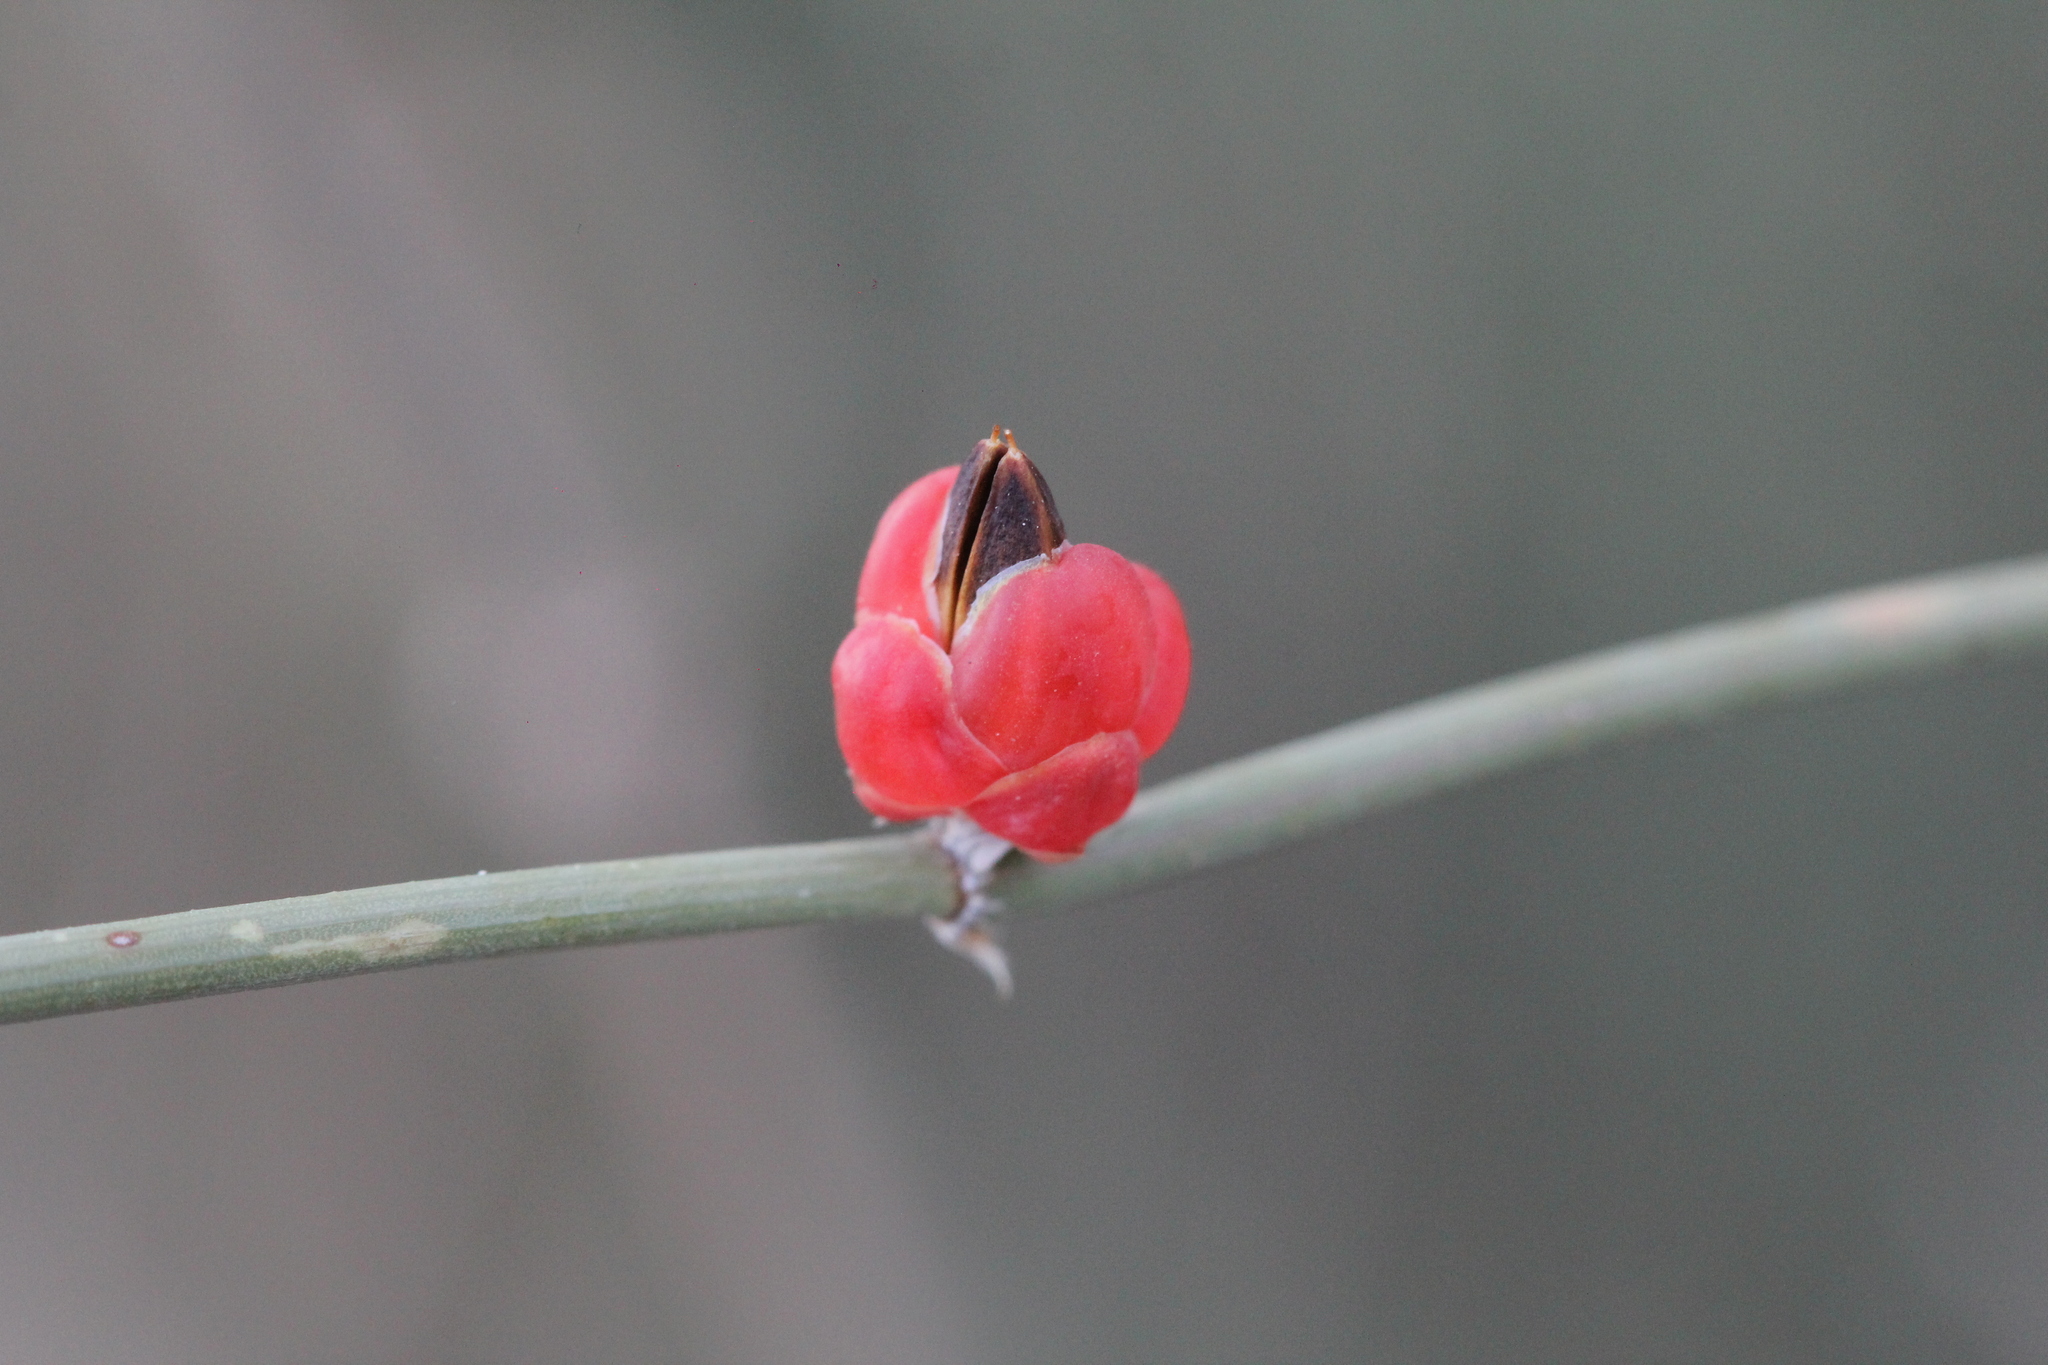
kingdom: Plantae
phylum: Tracheophyta
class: Gnetopsida
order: Ephedrales
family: Ephedraceae
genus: Ephedra
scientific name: Ephedra triandra
